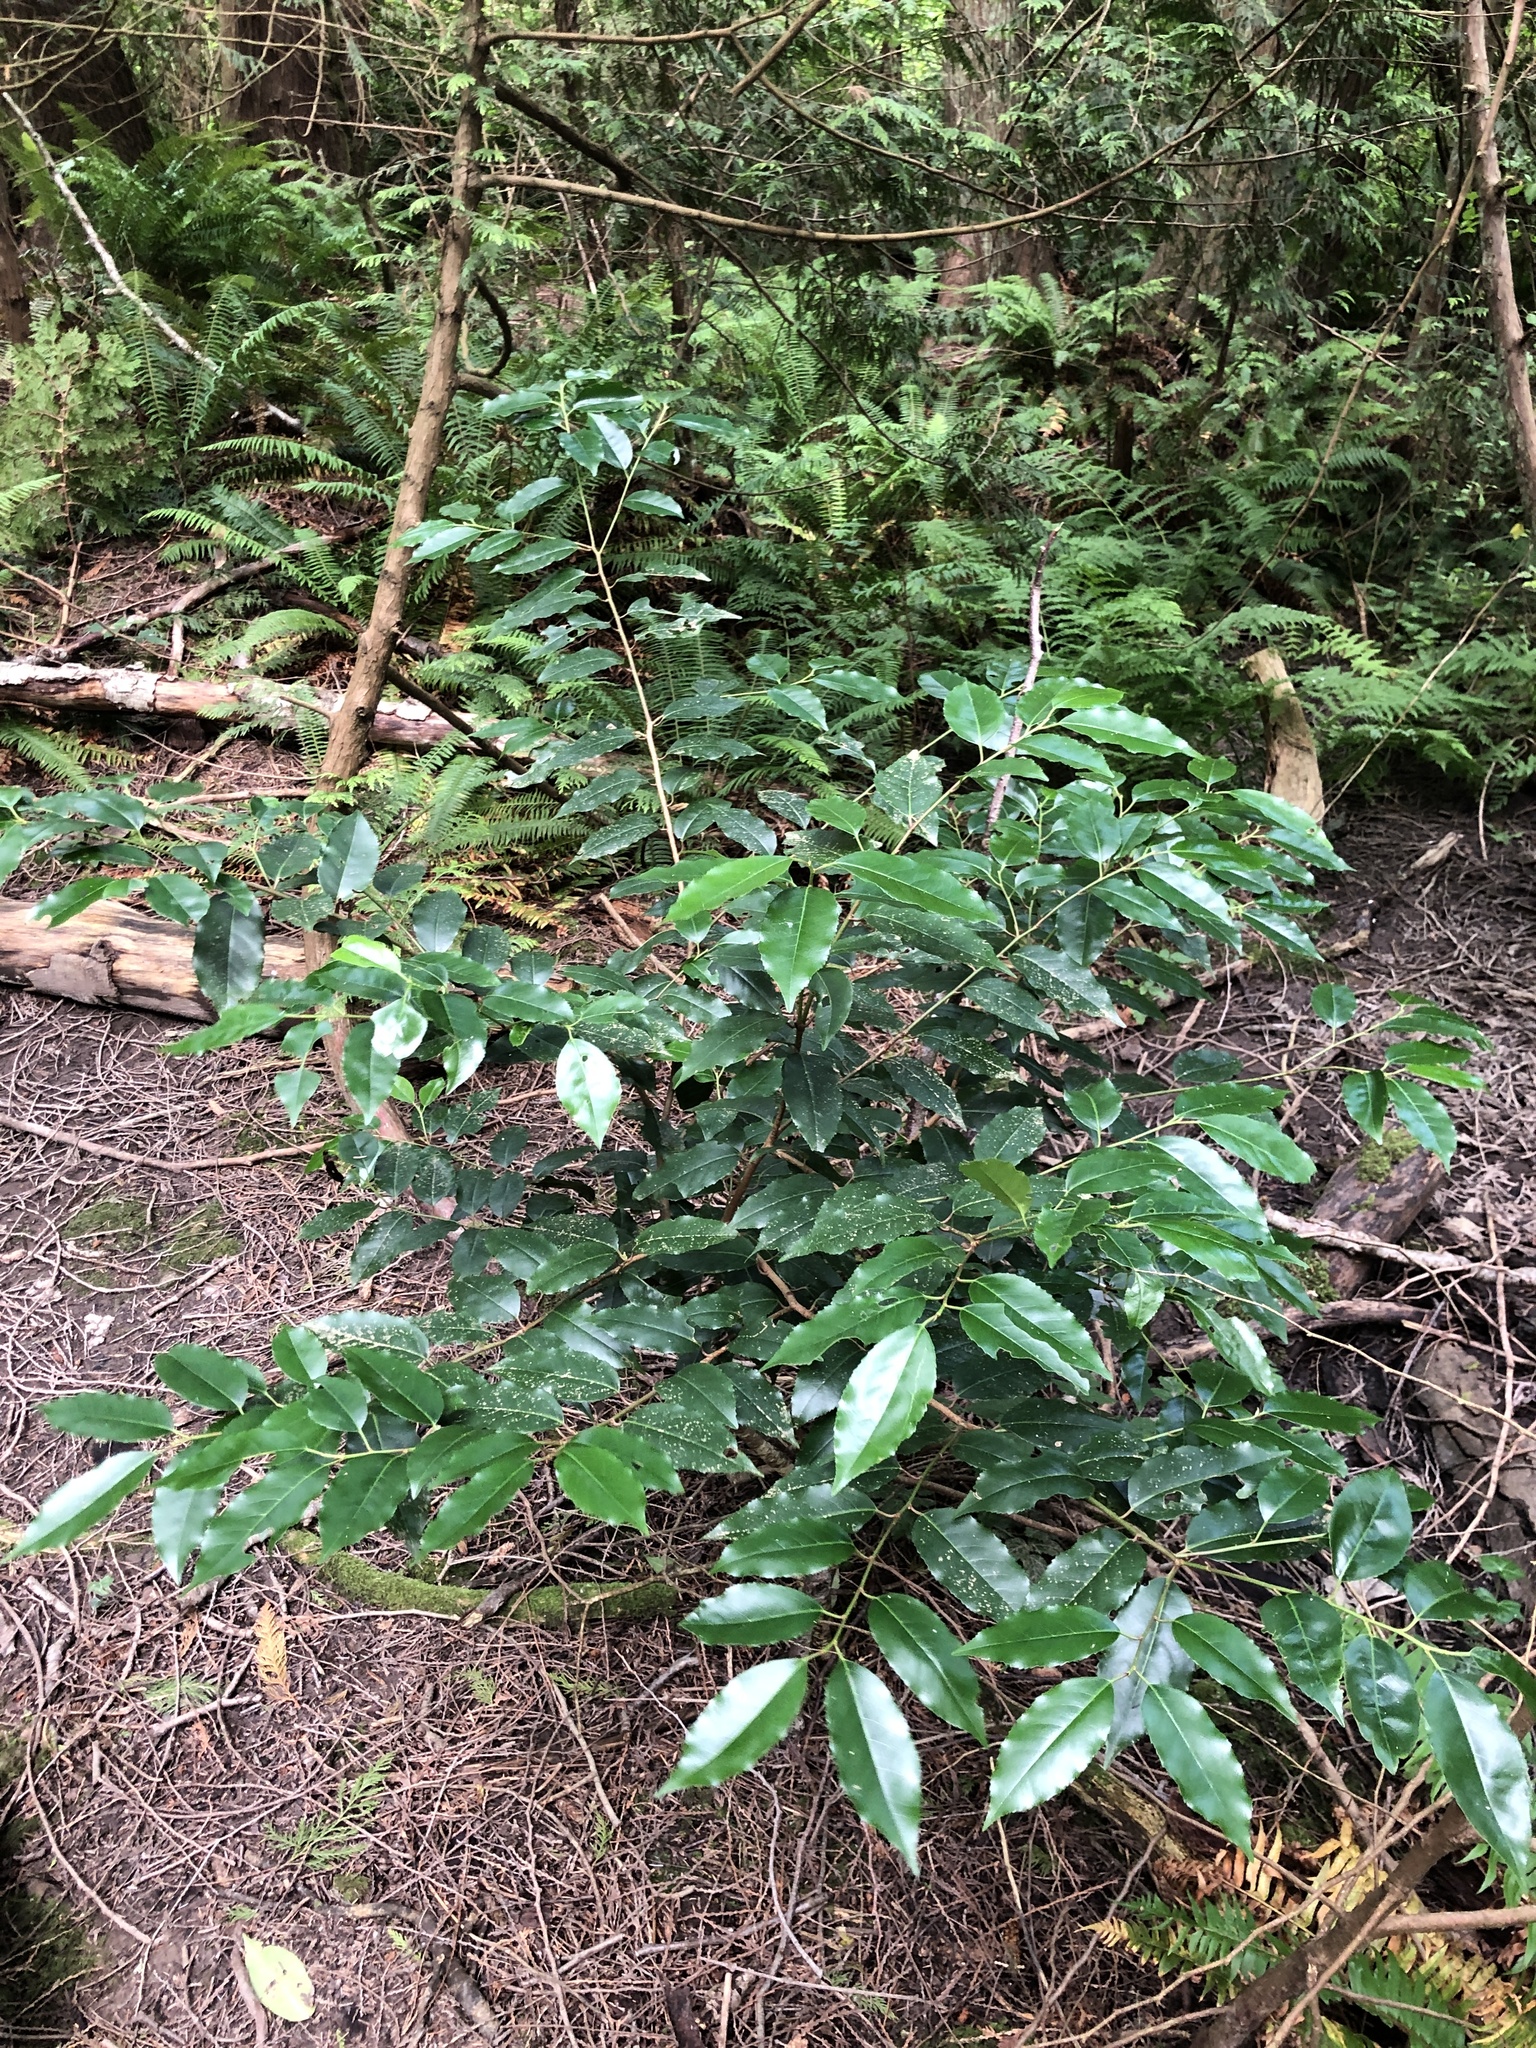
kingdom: Plantae
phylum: Tracheophyta
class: Magnoliopsida
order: Rosales
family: Rosaceae
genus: Prunus
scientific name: Prunus lusitanica
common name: Portugal laurel
